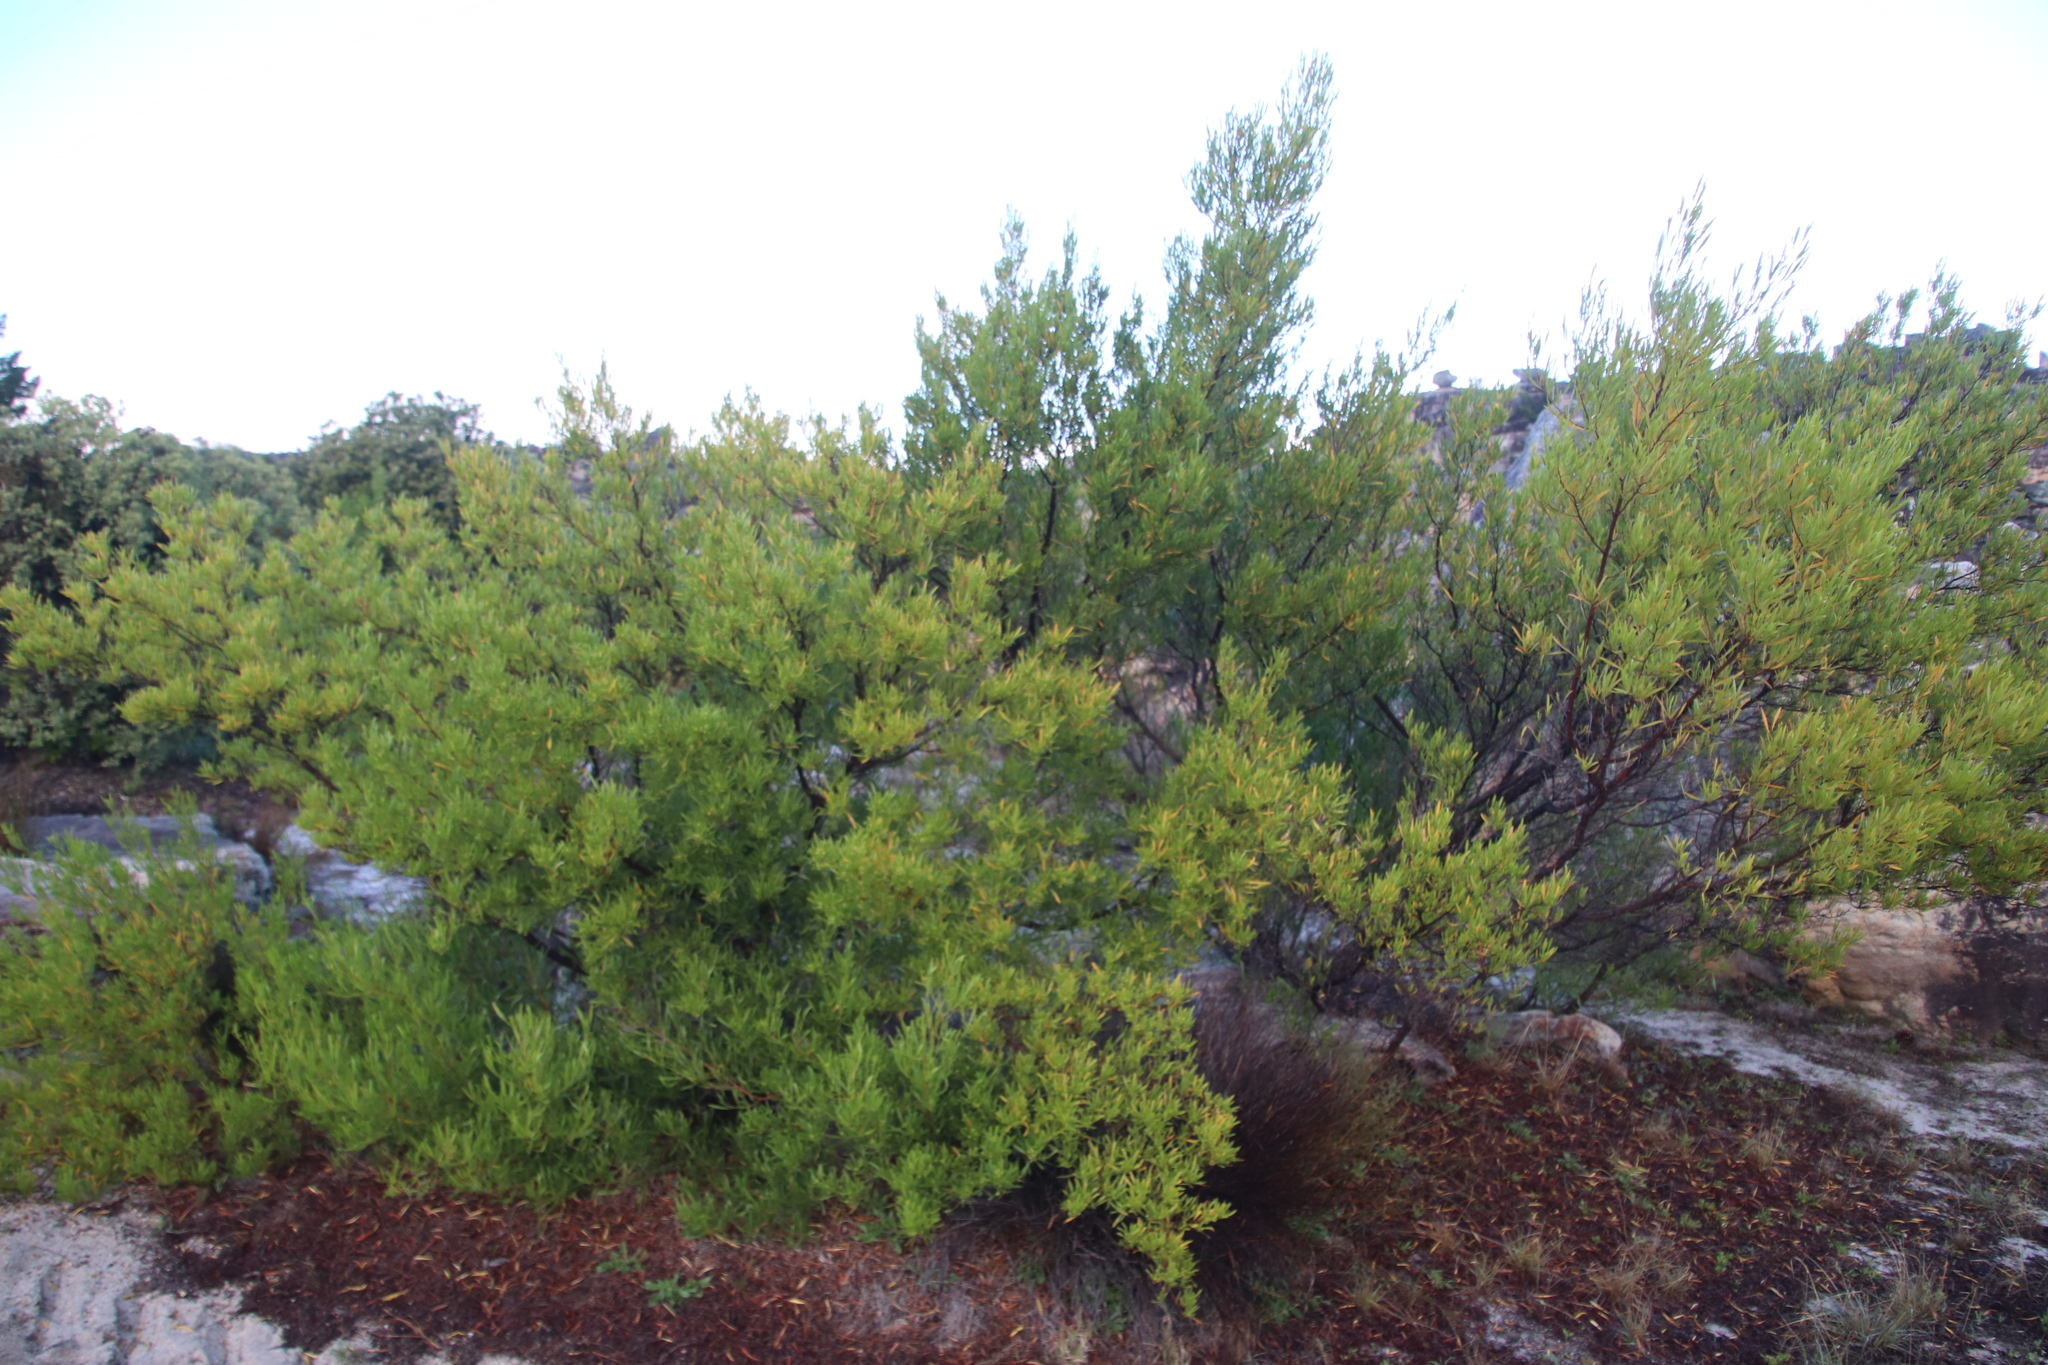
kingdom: Plantae
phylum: Tracheophyta
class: Magnoliopsida
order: Sapindales
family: Sapindaceae
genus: Dodonaea
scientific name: Dodonaea viscosa
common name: Hopbush
